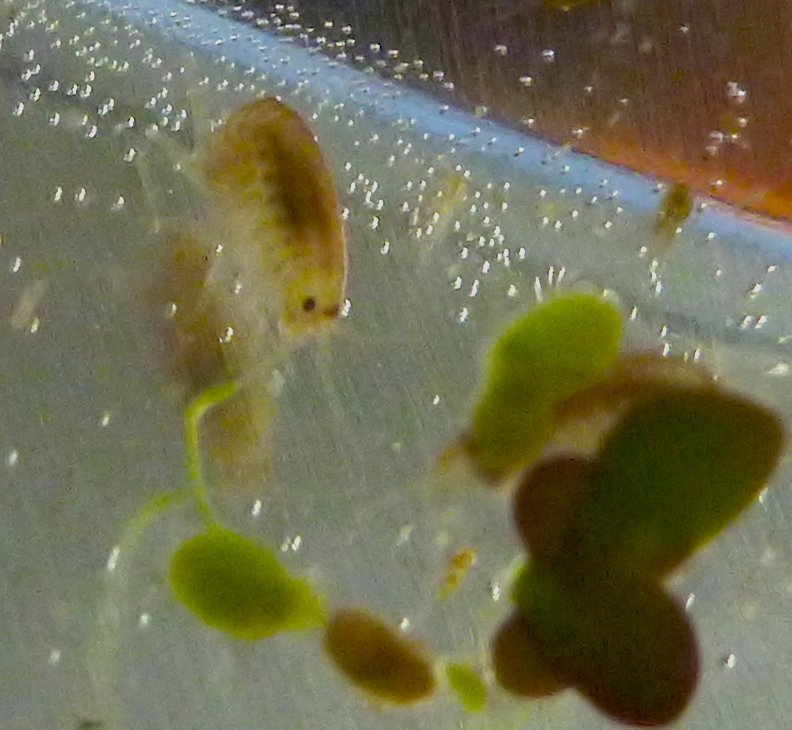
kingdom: Animalia
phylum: Arthropoda
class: Malacostraca
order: Amphipoda
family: Hyalellidae
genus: Hyalella
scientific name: Hyalella
